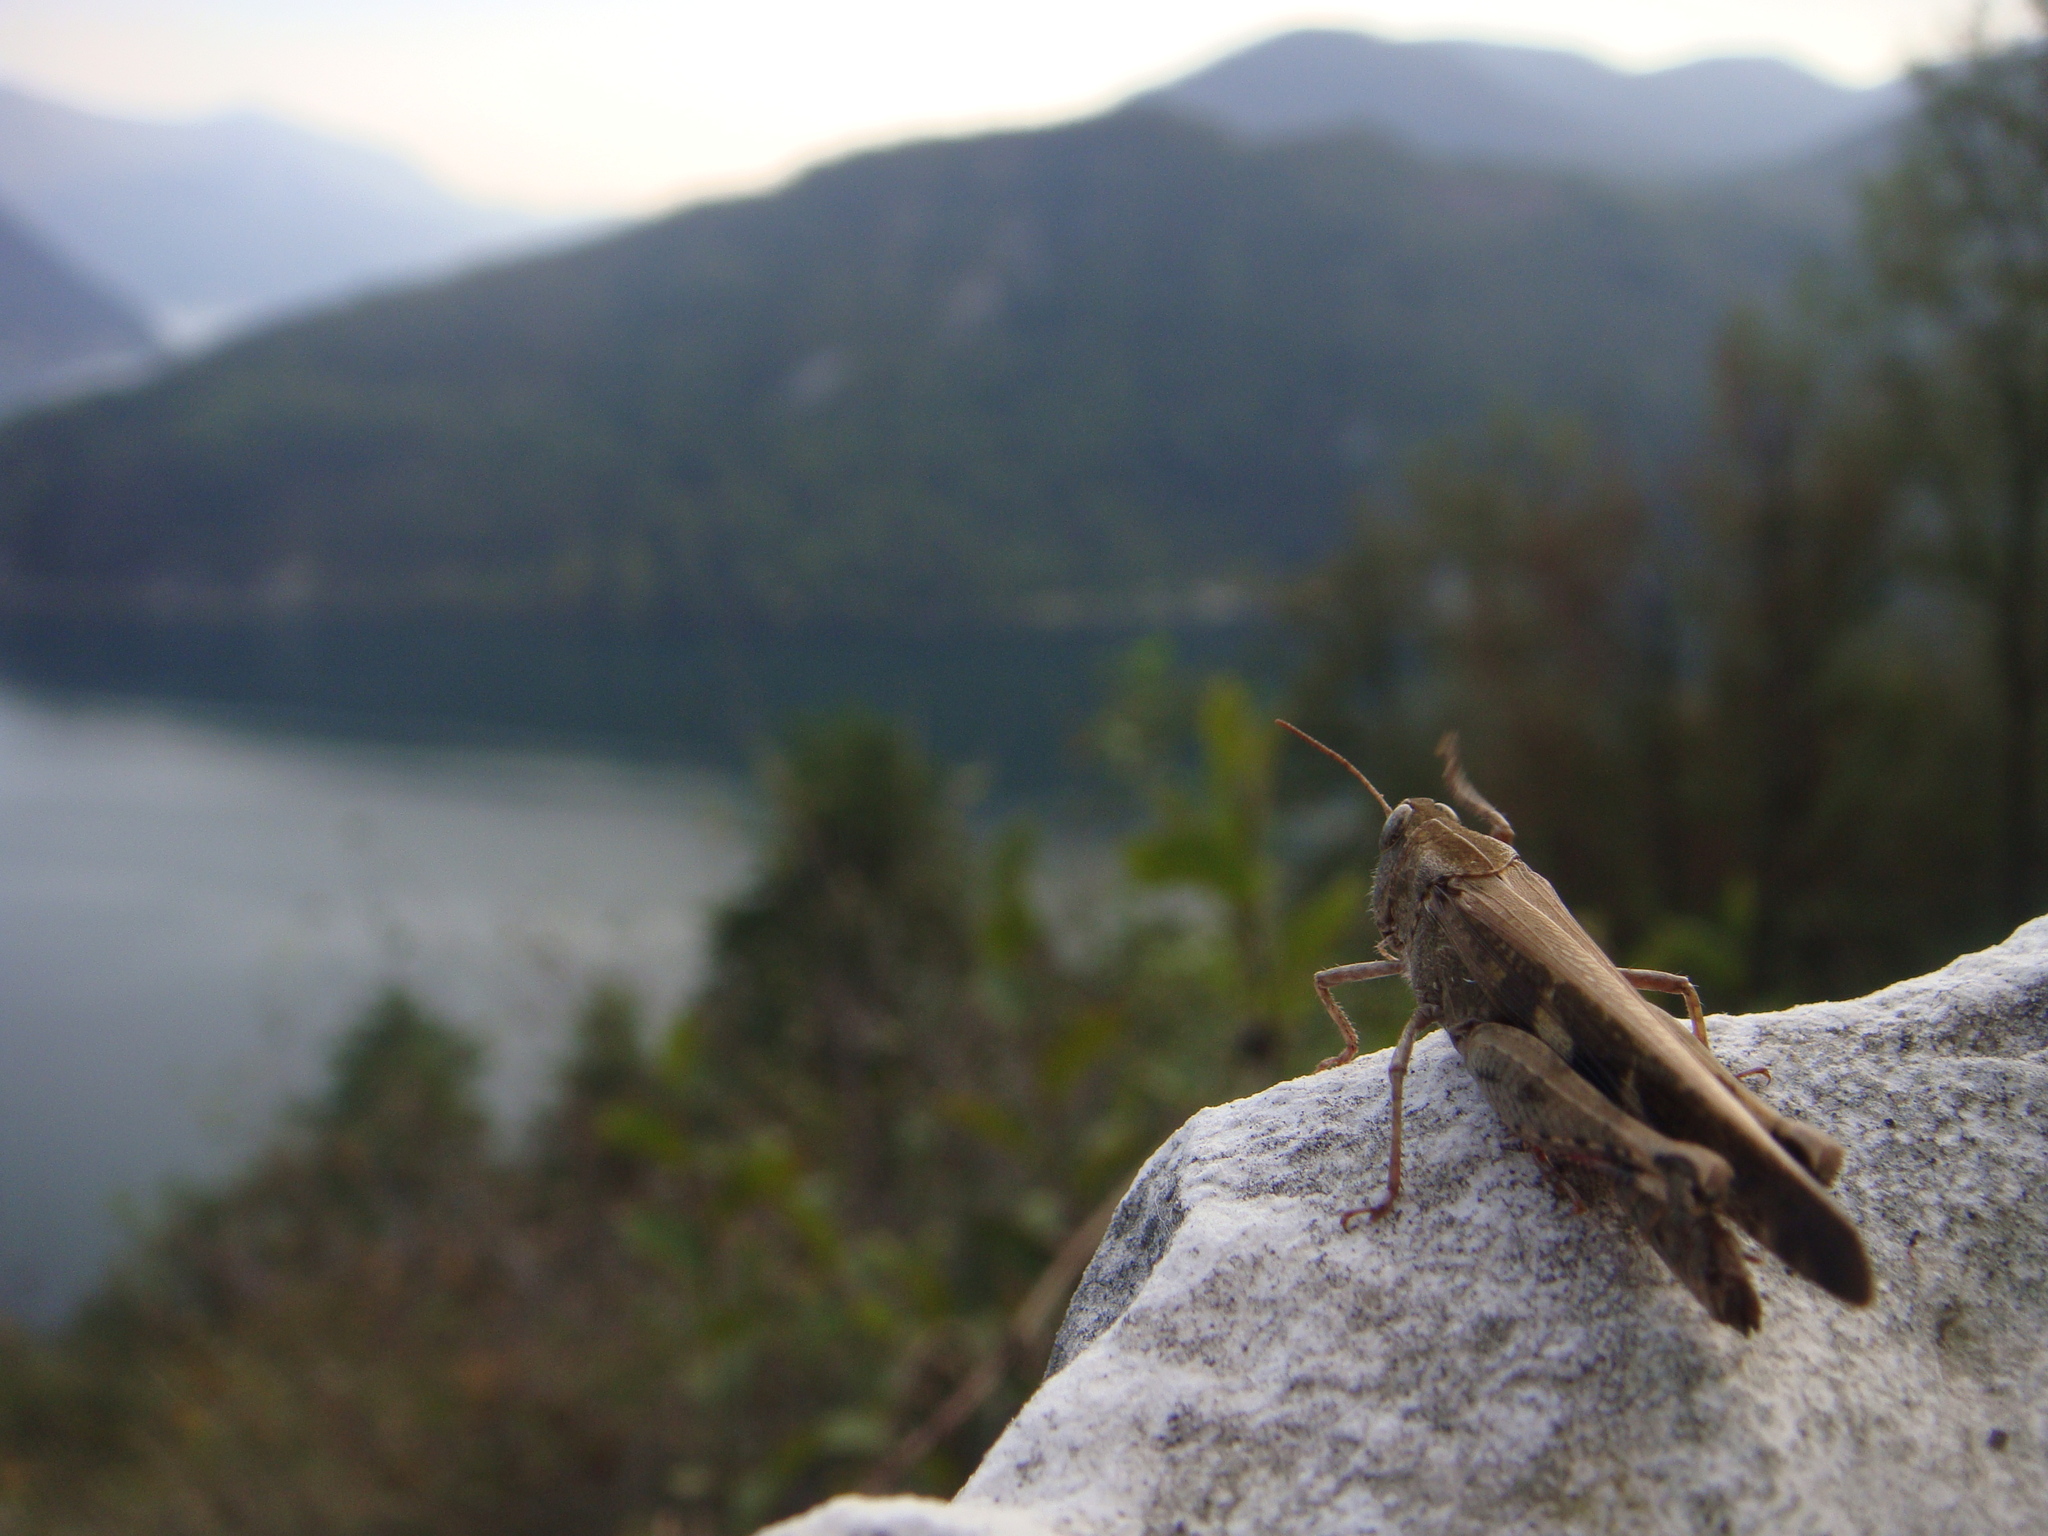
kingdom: Animalia
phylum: Arthropoda
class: Insecta
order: Orthoptera
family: Acrididae
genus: Aiolopus
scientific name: Aiolopus strepens
